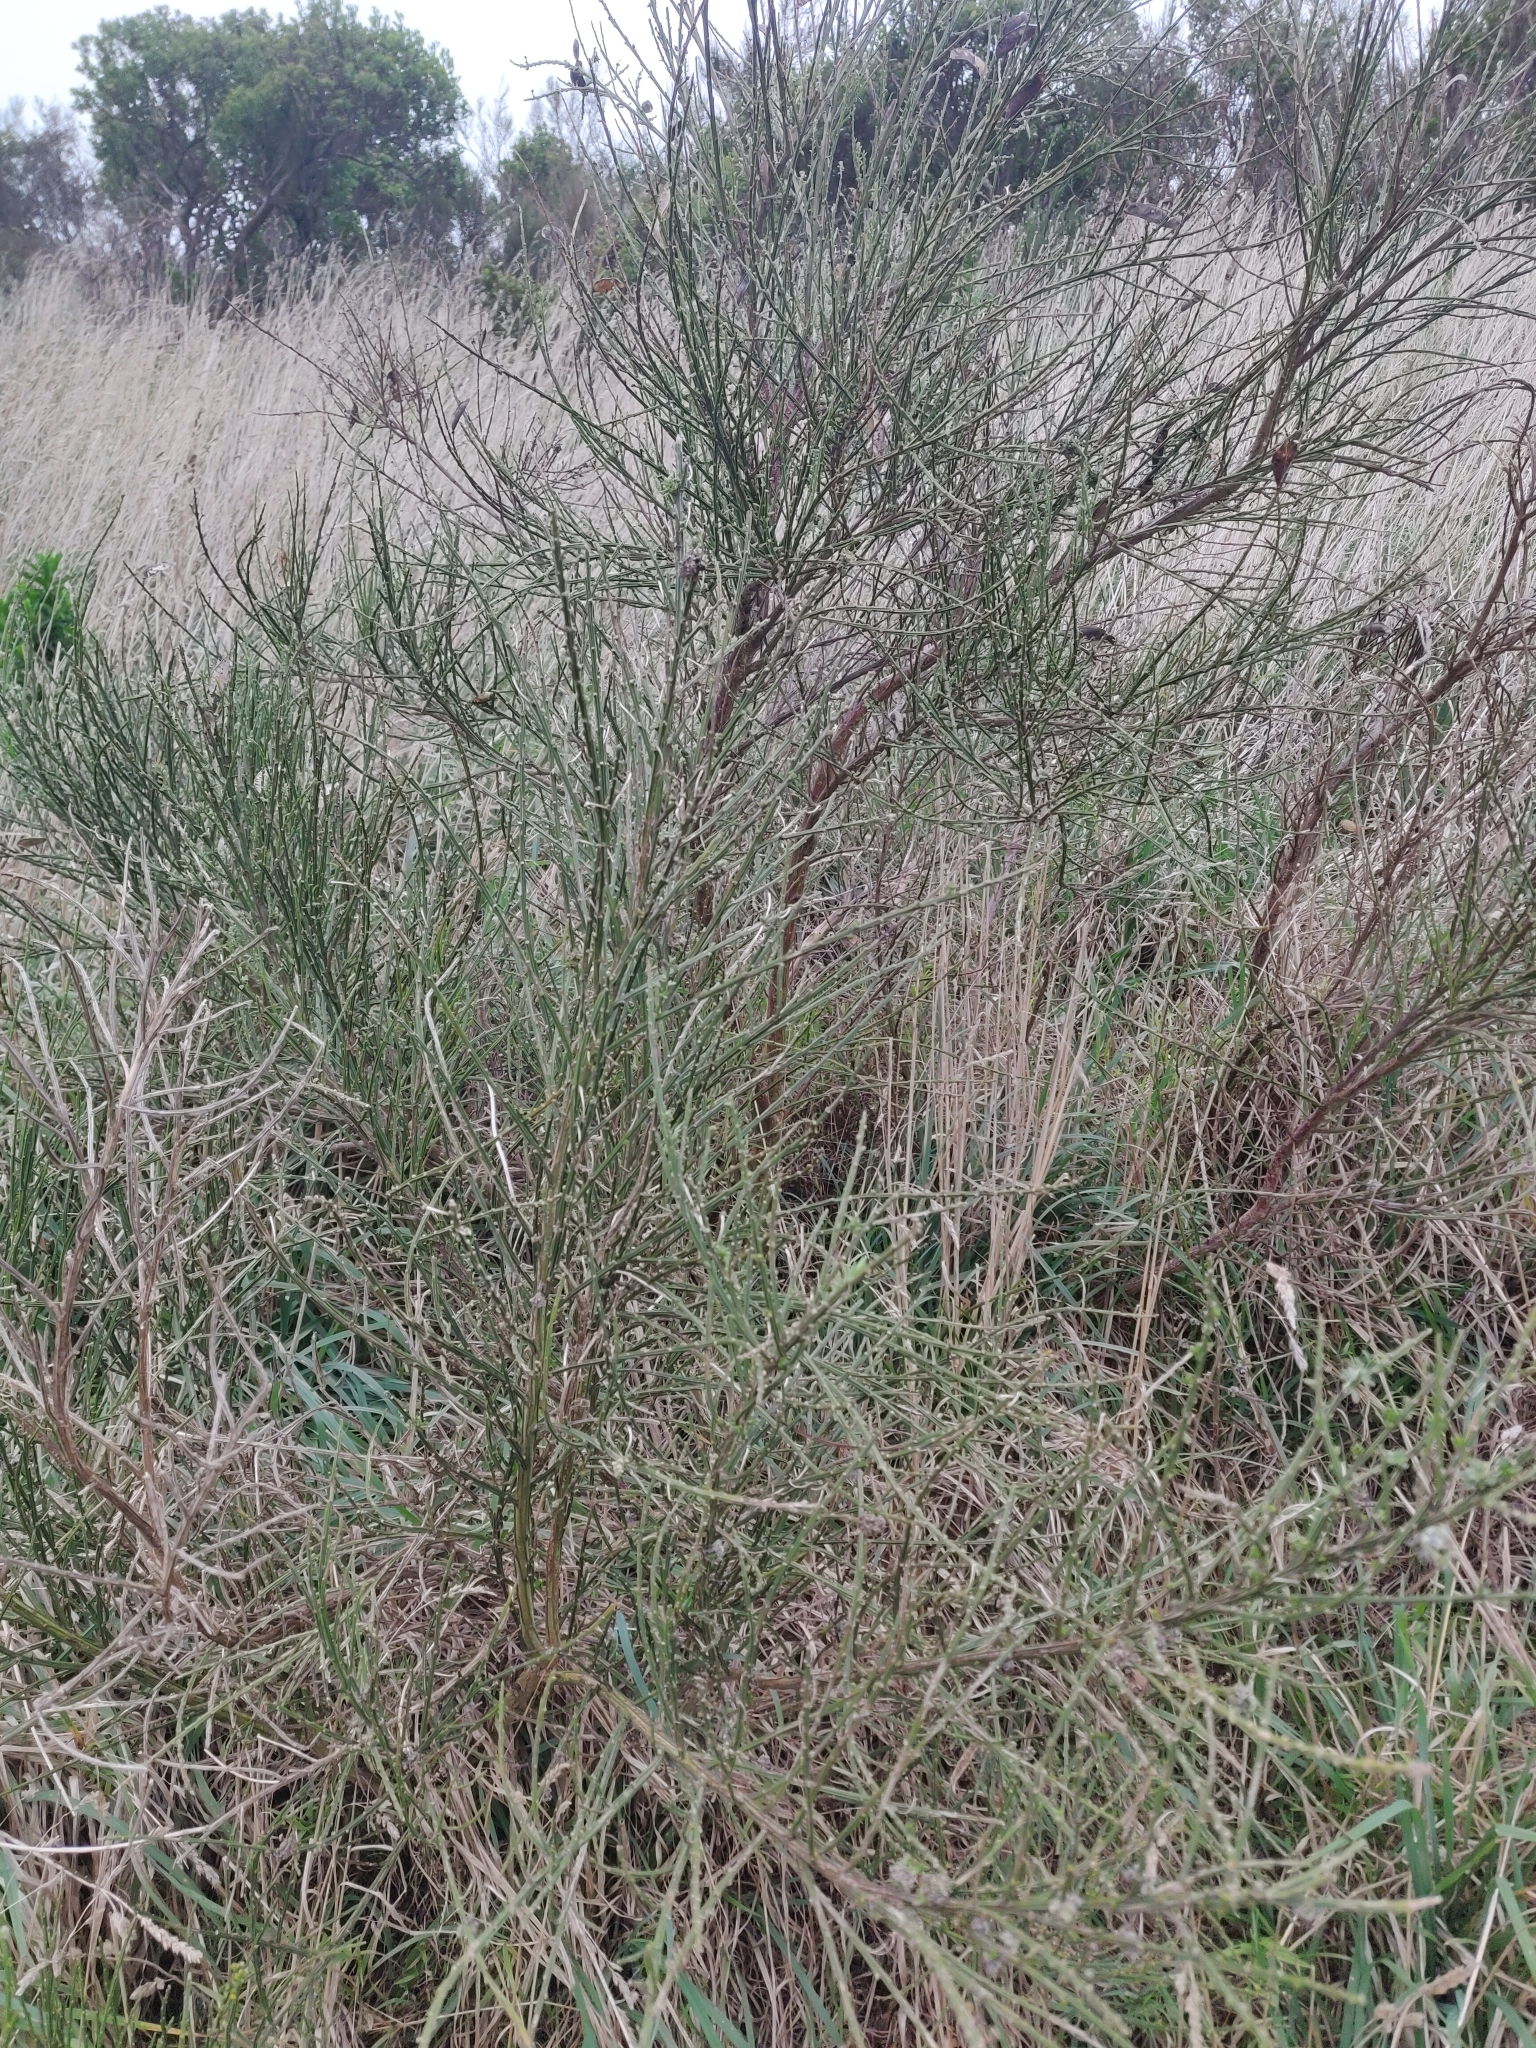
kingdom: Plantae
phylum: Tracheophyta
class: Magnoliopsida
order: Fabales
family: Fabaceae
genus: Cytisus
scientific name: Cytisus scoparius
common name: Scotch broom
